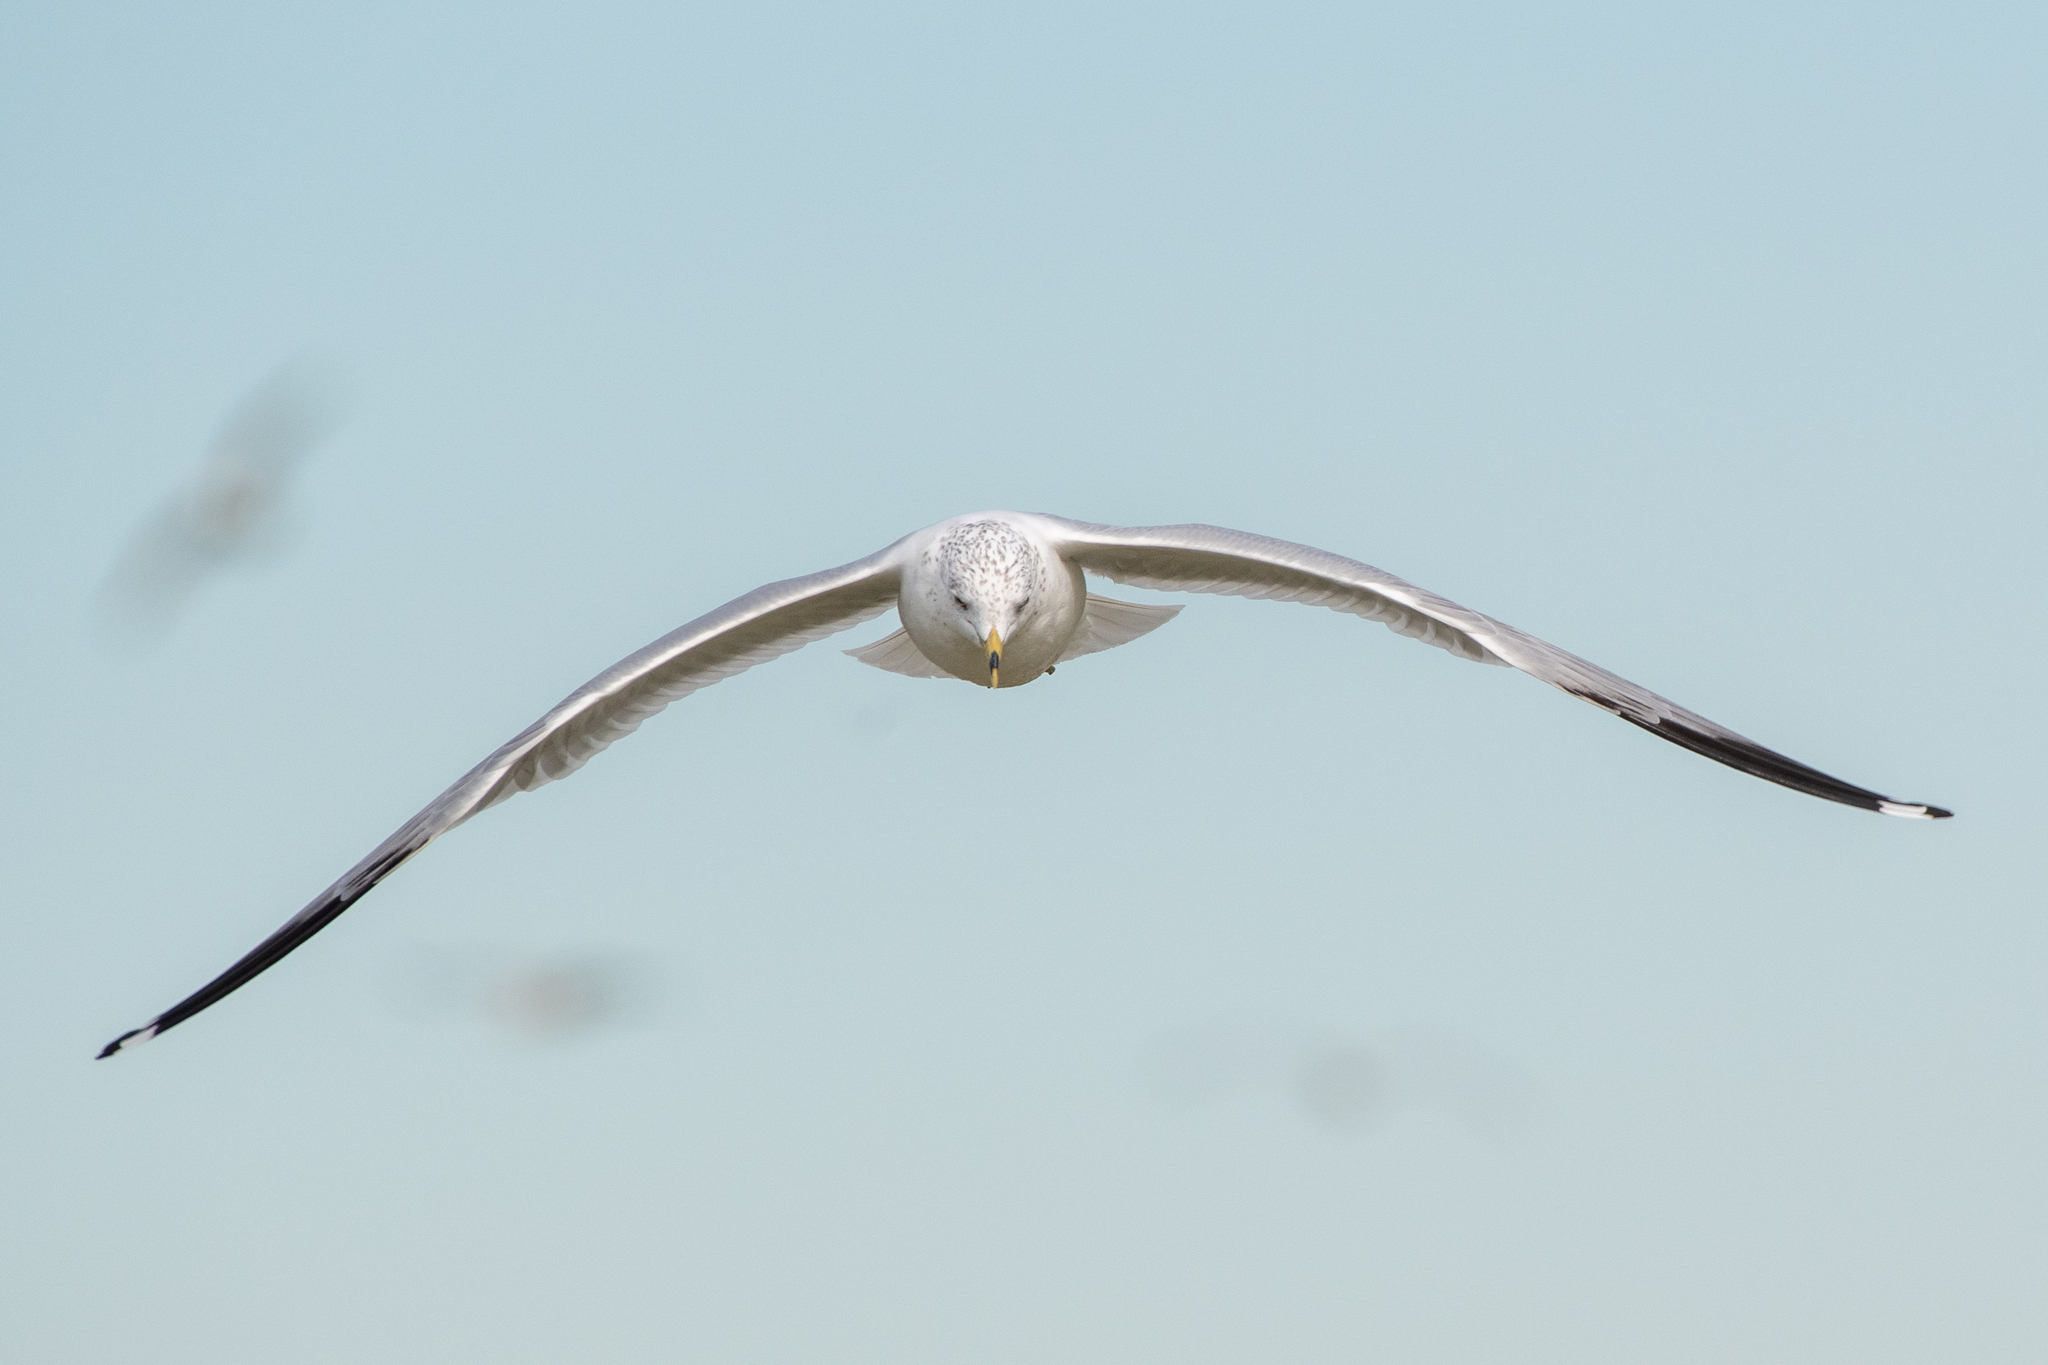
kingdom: Animalia
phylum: Chordata
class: Aves
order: Charadriiformes
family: Laridae
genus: Larus
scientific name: Larus delawarensis
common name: Ring-billed gull
